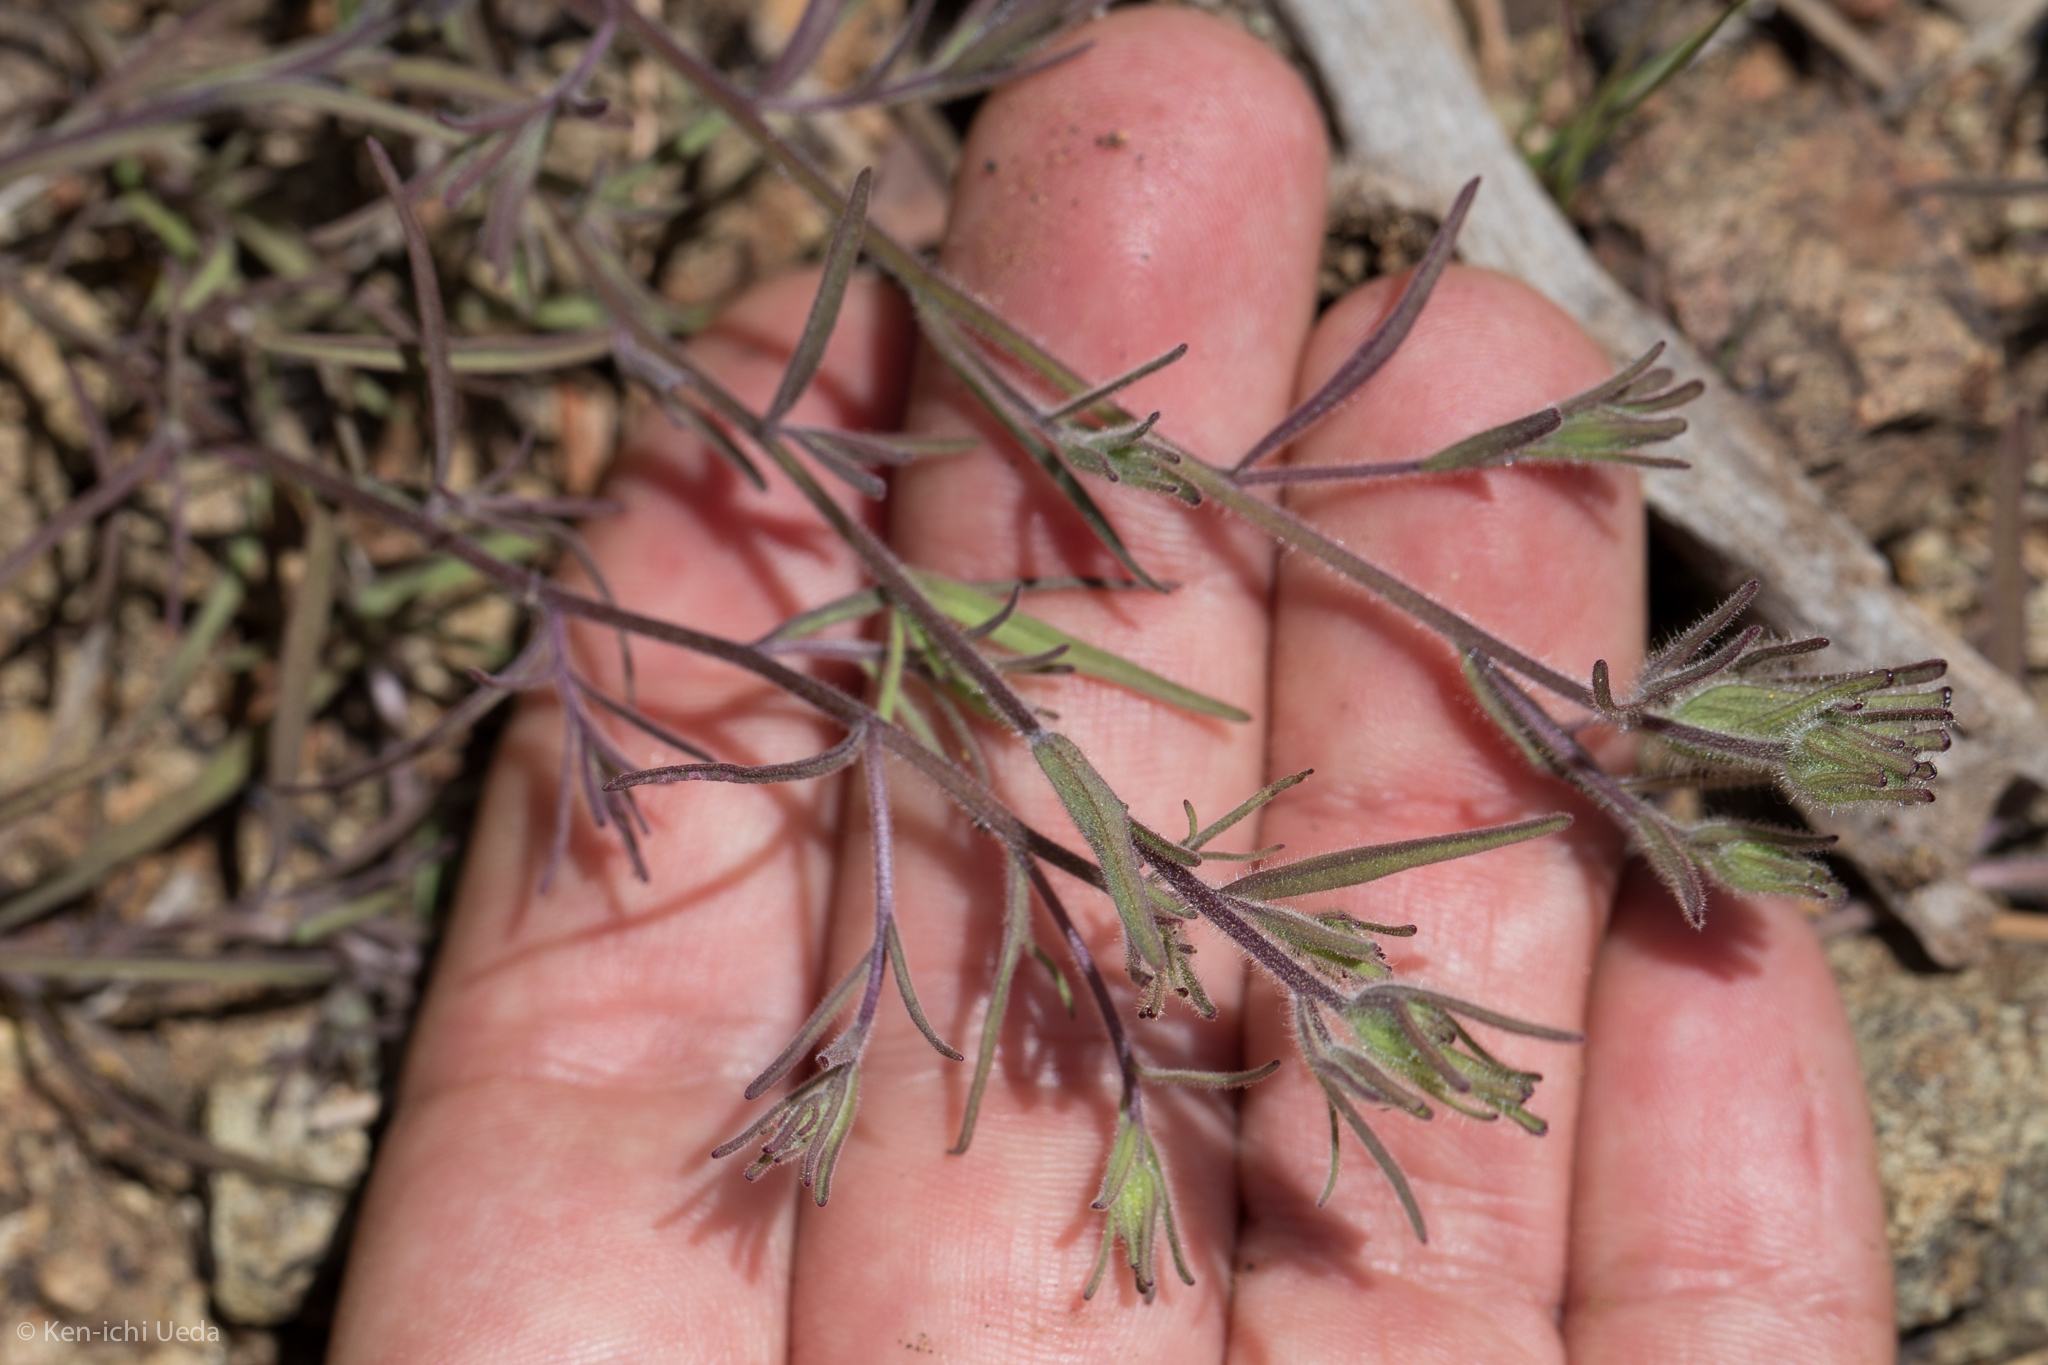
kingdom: Plantae
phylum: Tracheophyta
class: Magnoliopsida
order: Lamiales
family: Orobanchaceae
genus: Cordylanthus
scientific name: Cordylanthus nidularius
